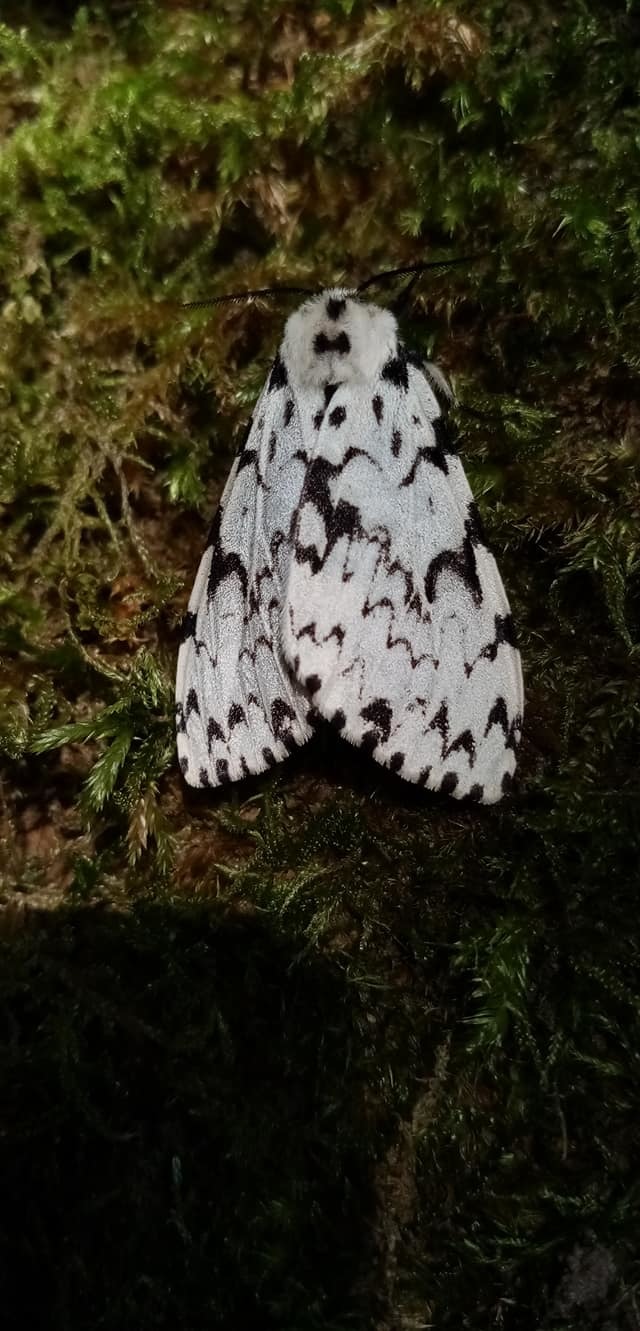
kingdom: Animalia
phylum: Arthropoda
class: Insecta
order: Lepidoptera
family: Erebidae
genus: Lymantria
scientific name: Lymantria monacha
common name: Black arches
